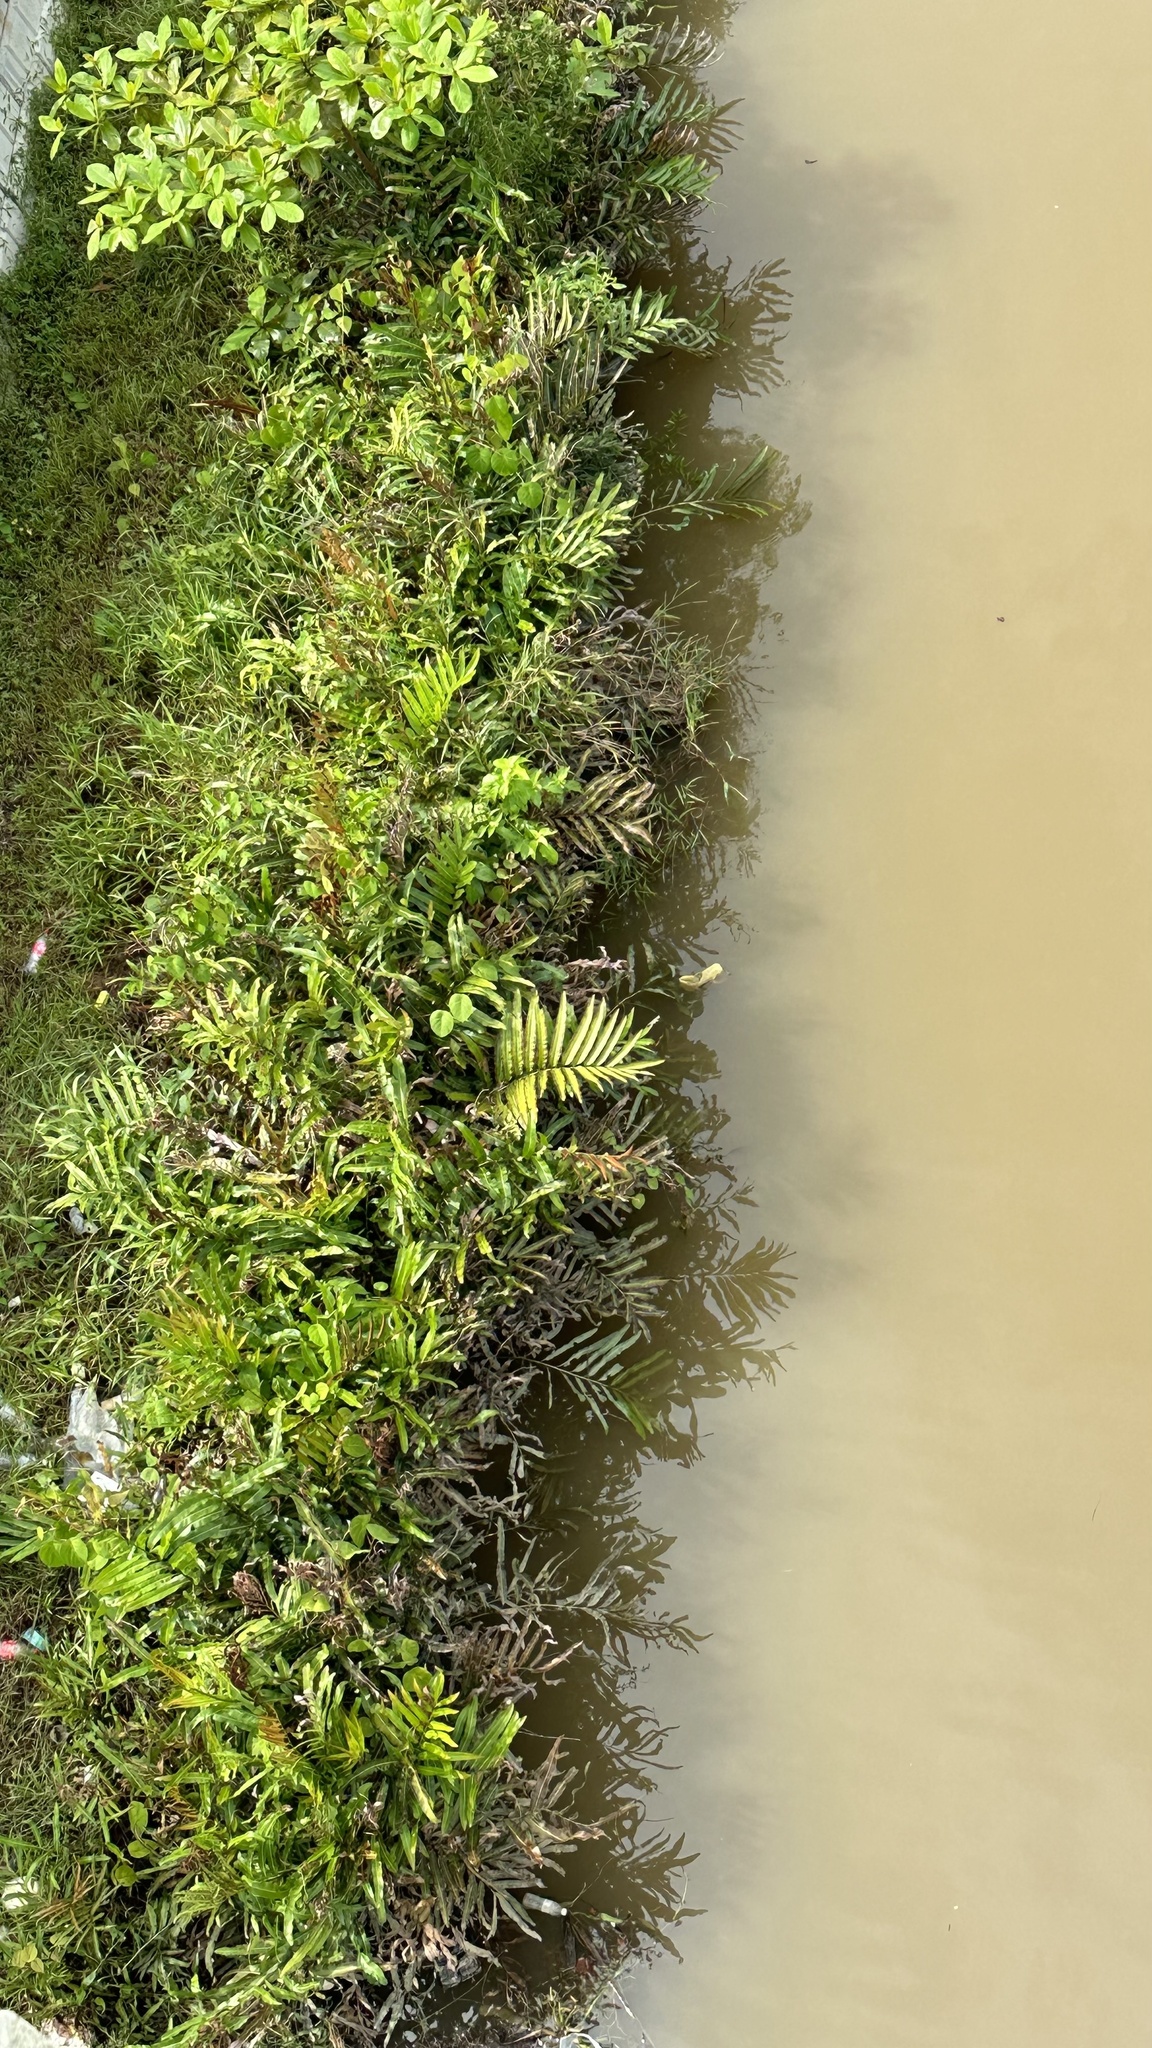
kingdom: Plantae
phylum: Tracheophyta
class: Polypodiopsida
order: Polypodiales
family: Pteridaceae
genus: Acrostichum
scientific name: Acrostichum aureum
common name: Leather fern
